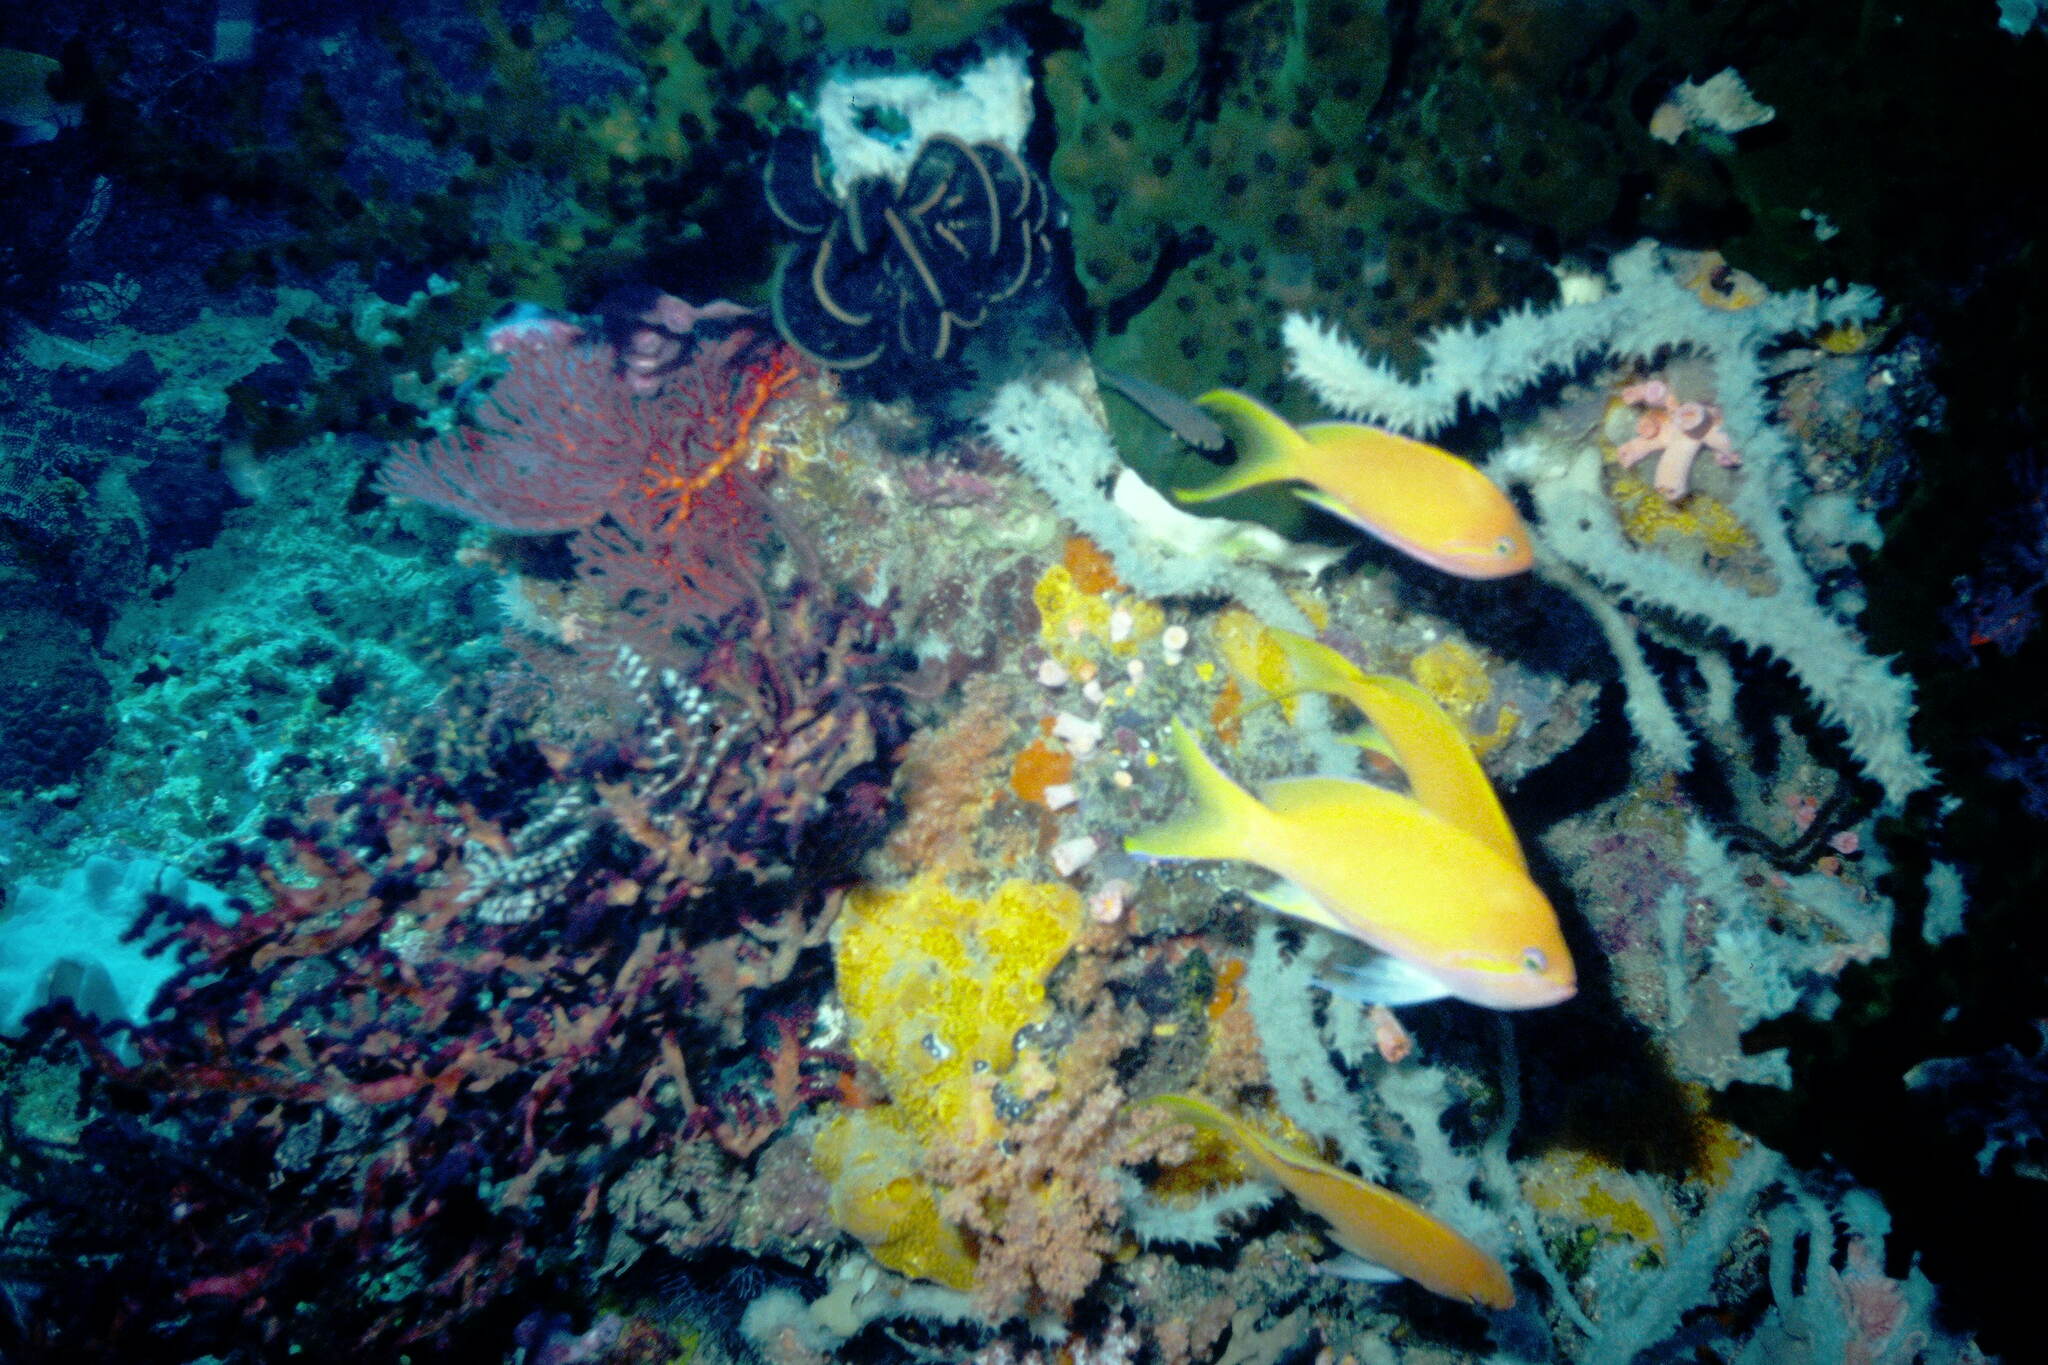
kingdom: Animalia
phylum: Chordata
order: Perciformes
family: Serranidae
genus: Pseudanthias
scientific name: Pseudanthias squamipinnis
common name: Scalefin anthias
